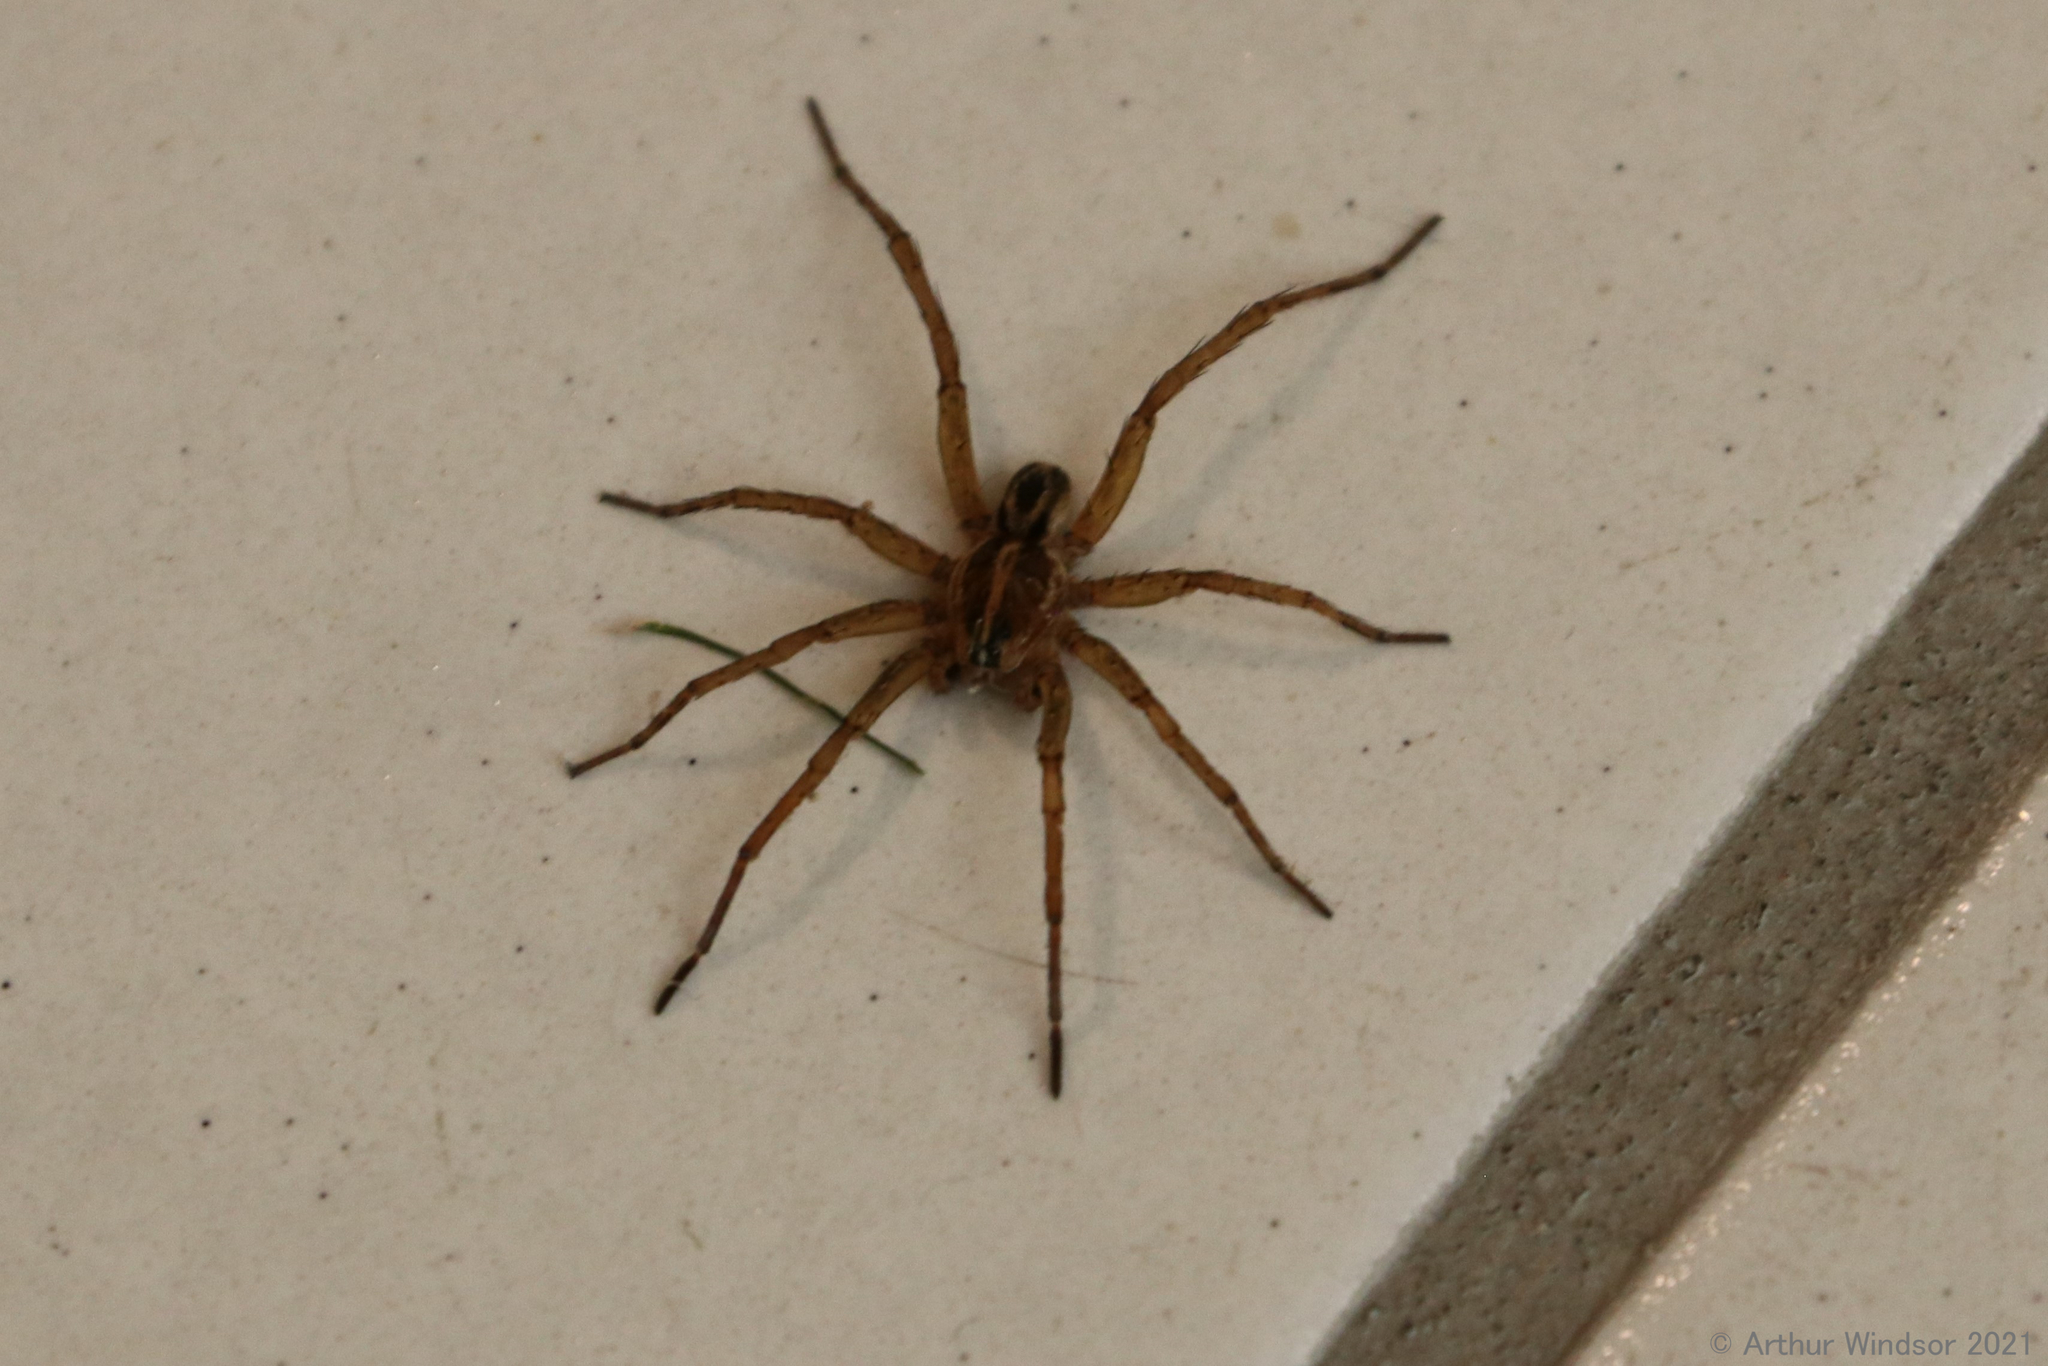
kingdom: Animalia
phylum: Arthropoda
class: Arachnida
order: Araneae
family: Lycosidae
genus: Tigrosa
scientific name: Tigrosa annexa
